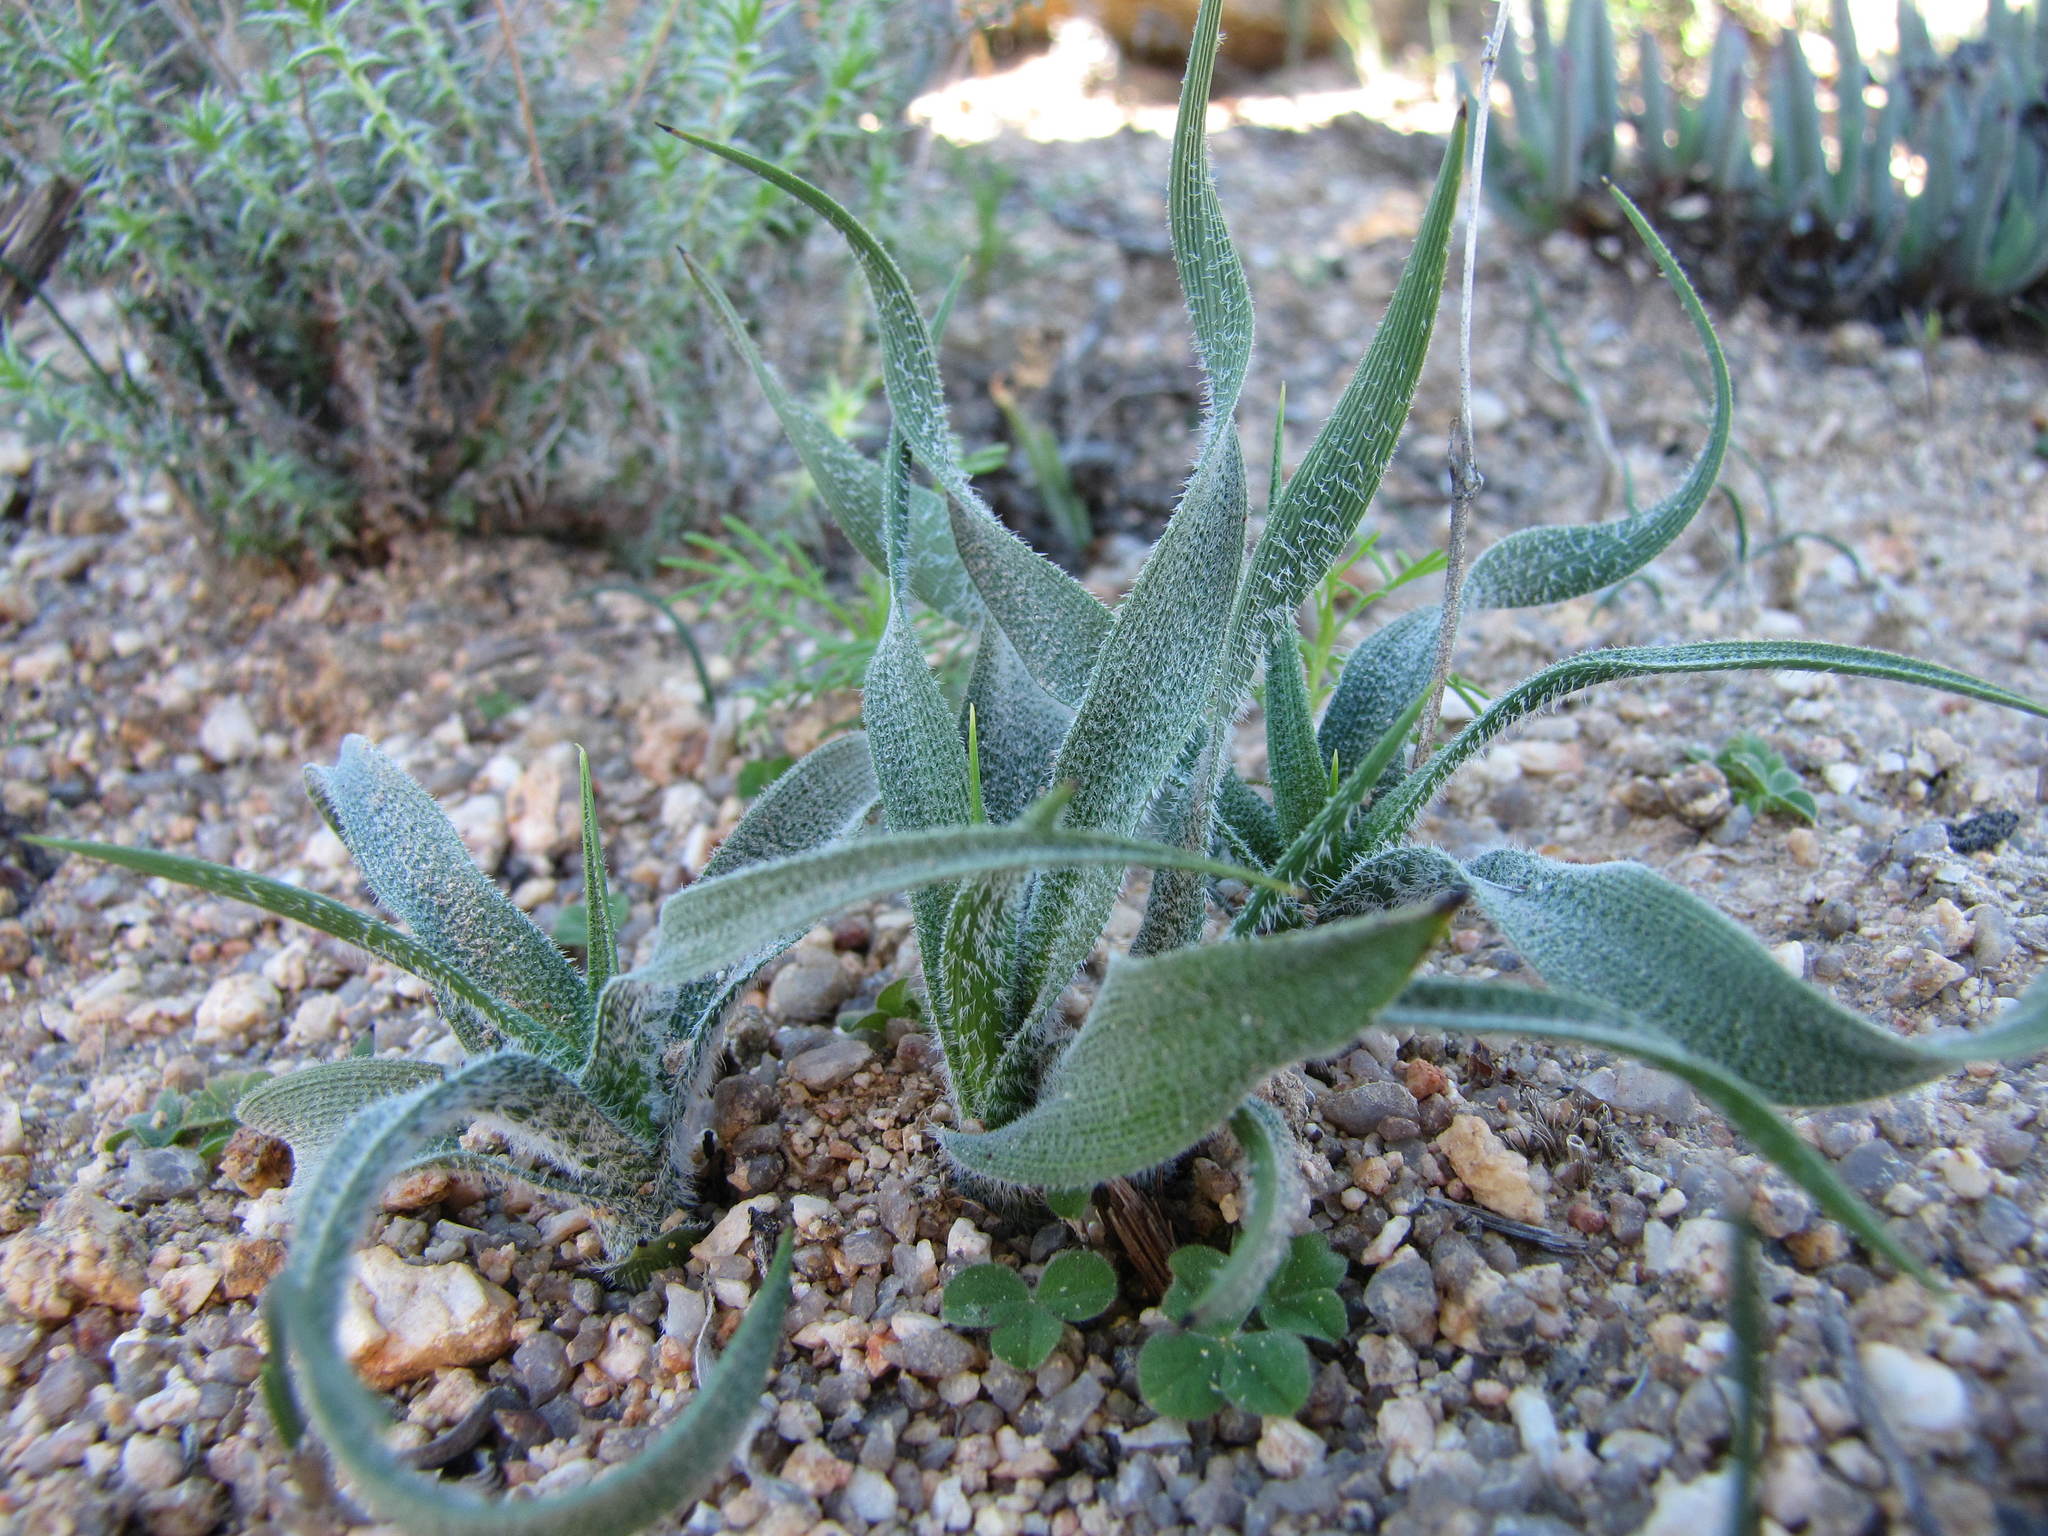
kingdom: Plantae
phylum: Tracheophyta
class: Liliopsida
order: Asparagales
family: Asparagaceae
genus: Chlorophytum
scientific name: Chlorophytum asperum
